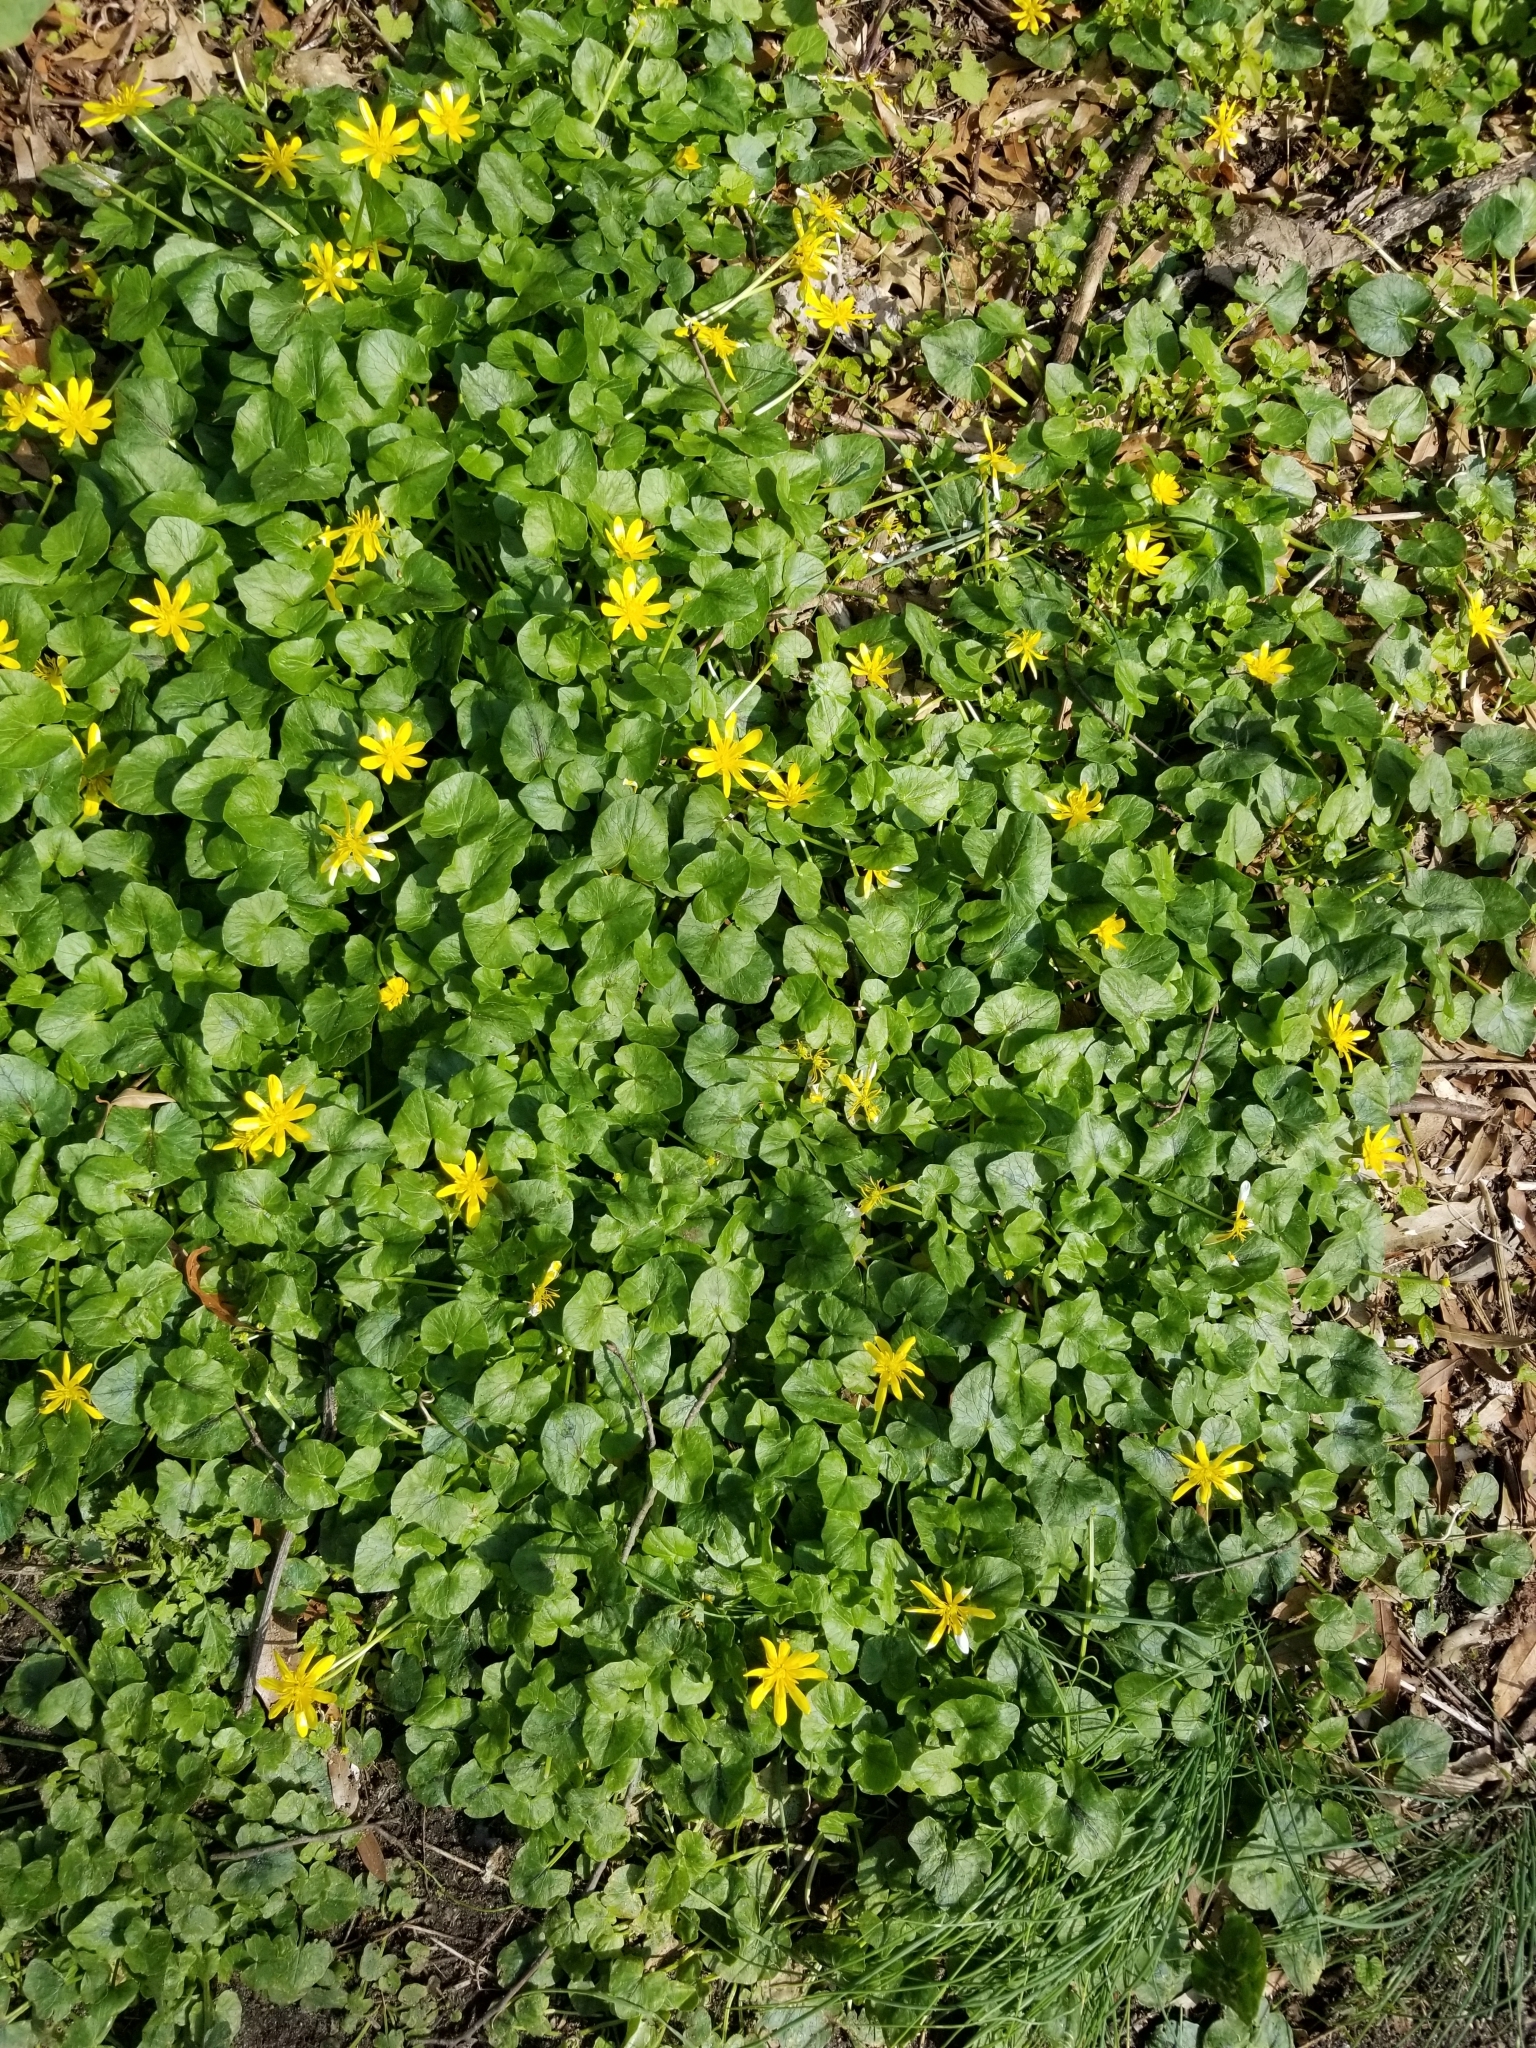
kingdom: Plantae
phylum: Tracheophyta
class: Magnoliopsida
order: Ranunculales
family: Ranunculaceae
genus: Ficaria
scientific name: Ficaria verna
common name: Lesser celandine
